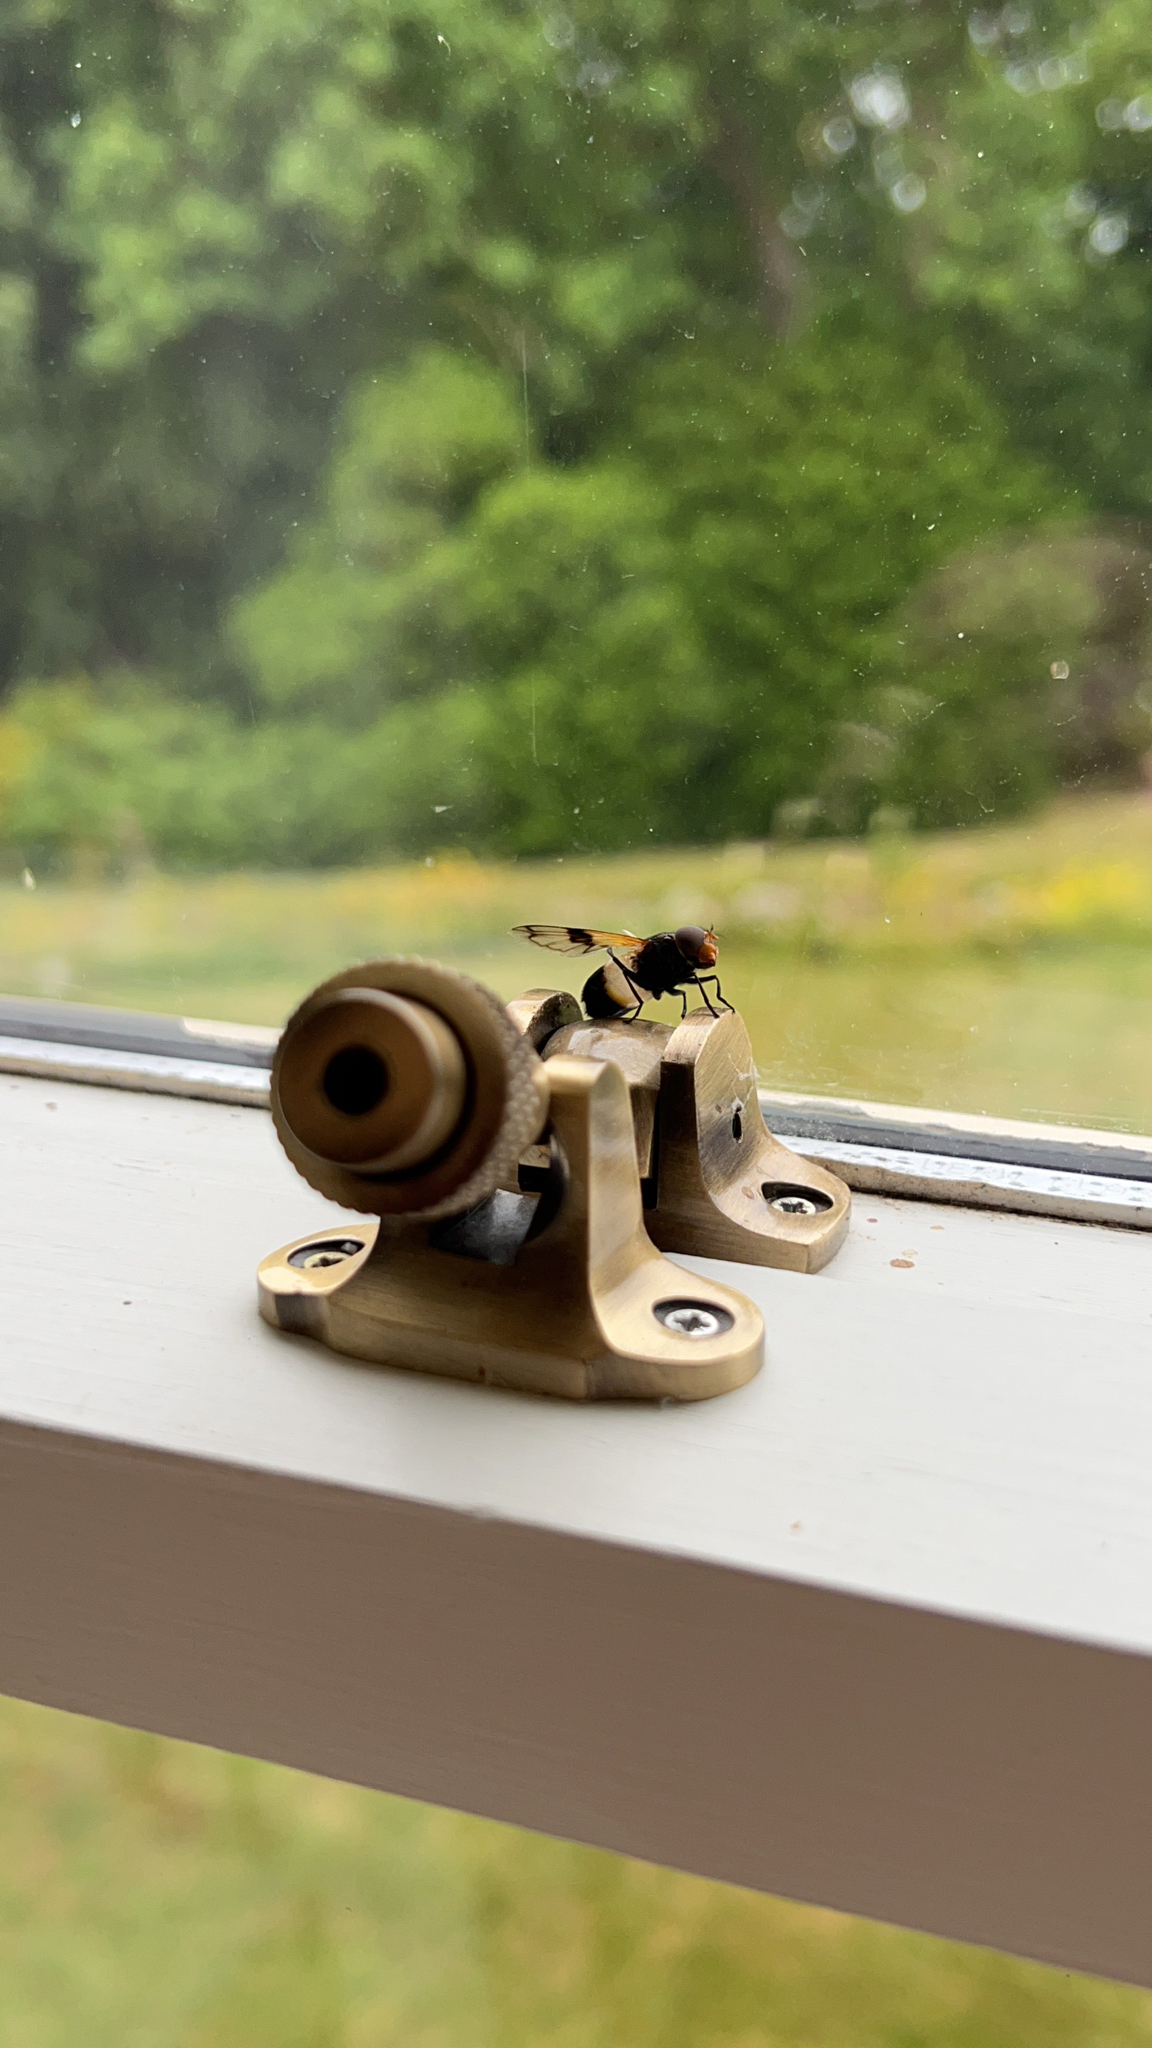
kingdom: Animalia
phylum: Arthropoda
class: Insecta
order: Diptera
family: Syrphidae
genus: Volucella
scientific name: Volucella pellucens
